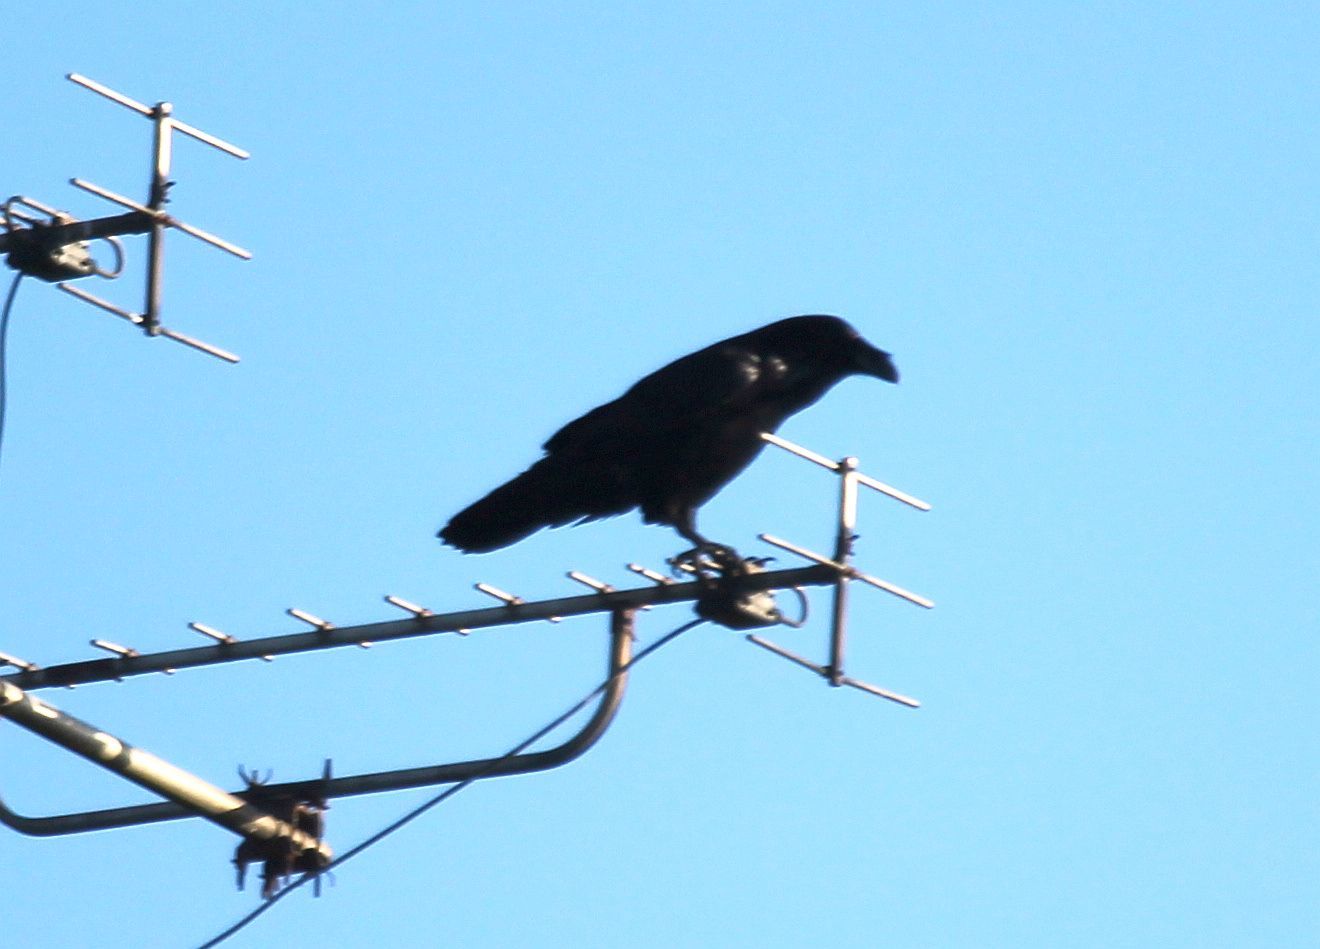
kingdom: Animalia
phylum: Chordata
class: Aves
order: Passeriformes
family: Corvidae
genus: Corvus
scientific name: Corvus corax
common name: Common raven
